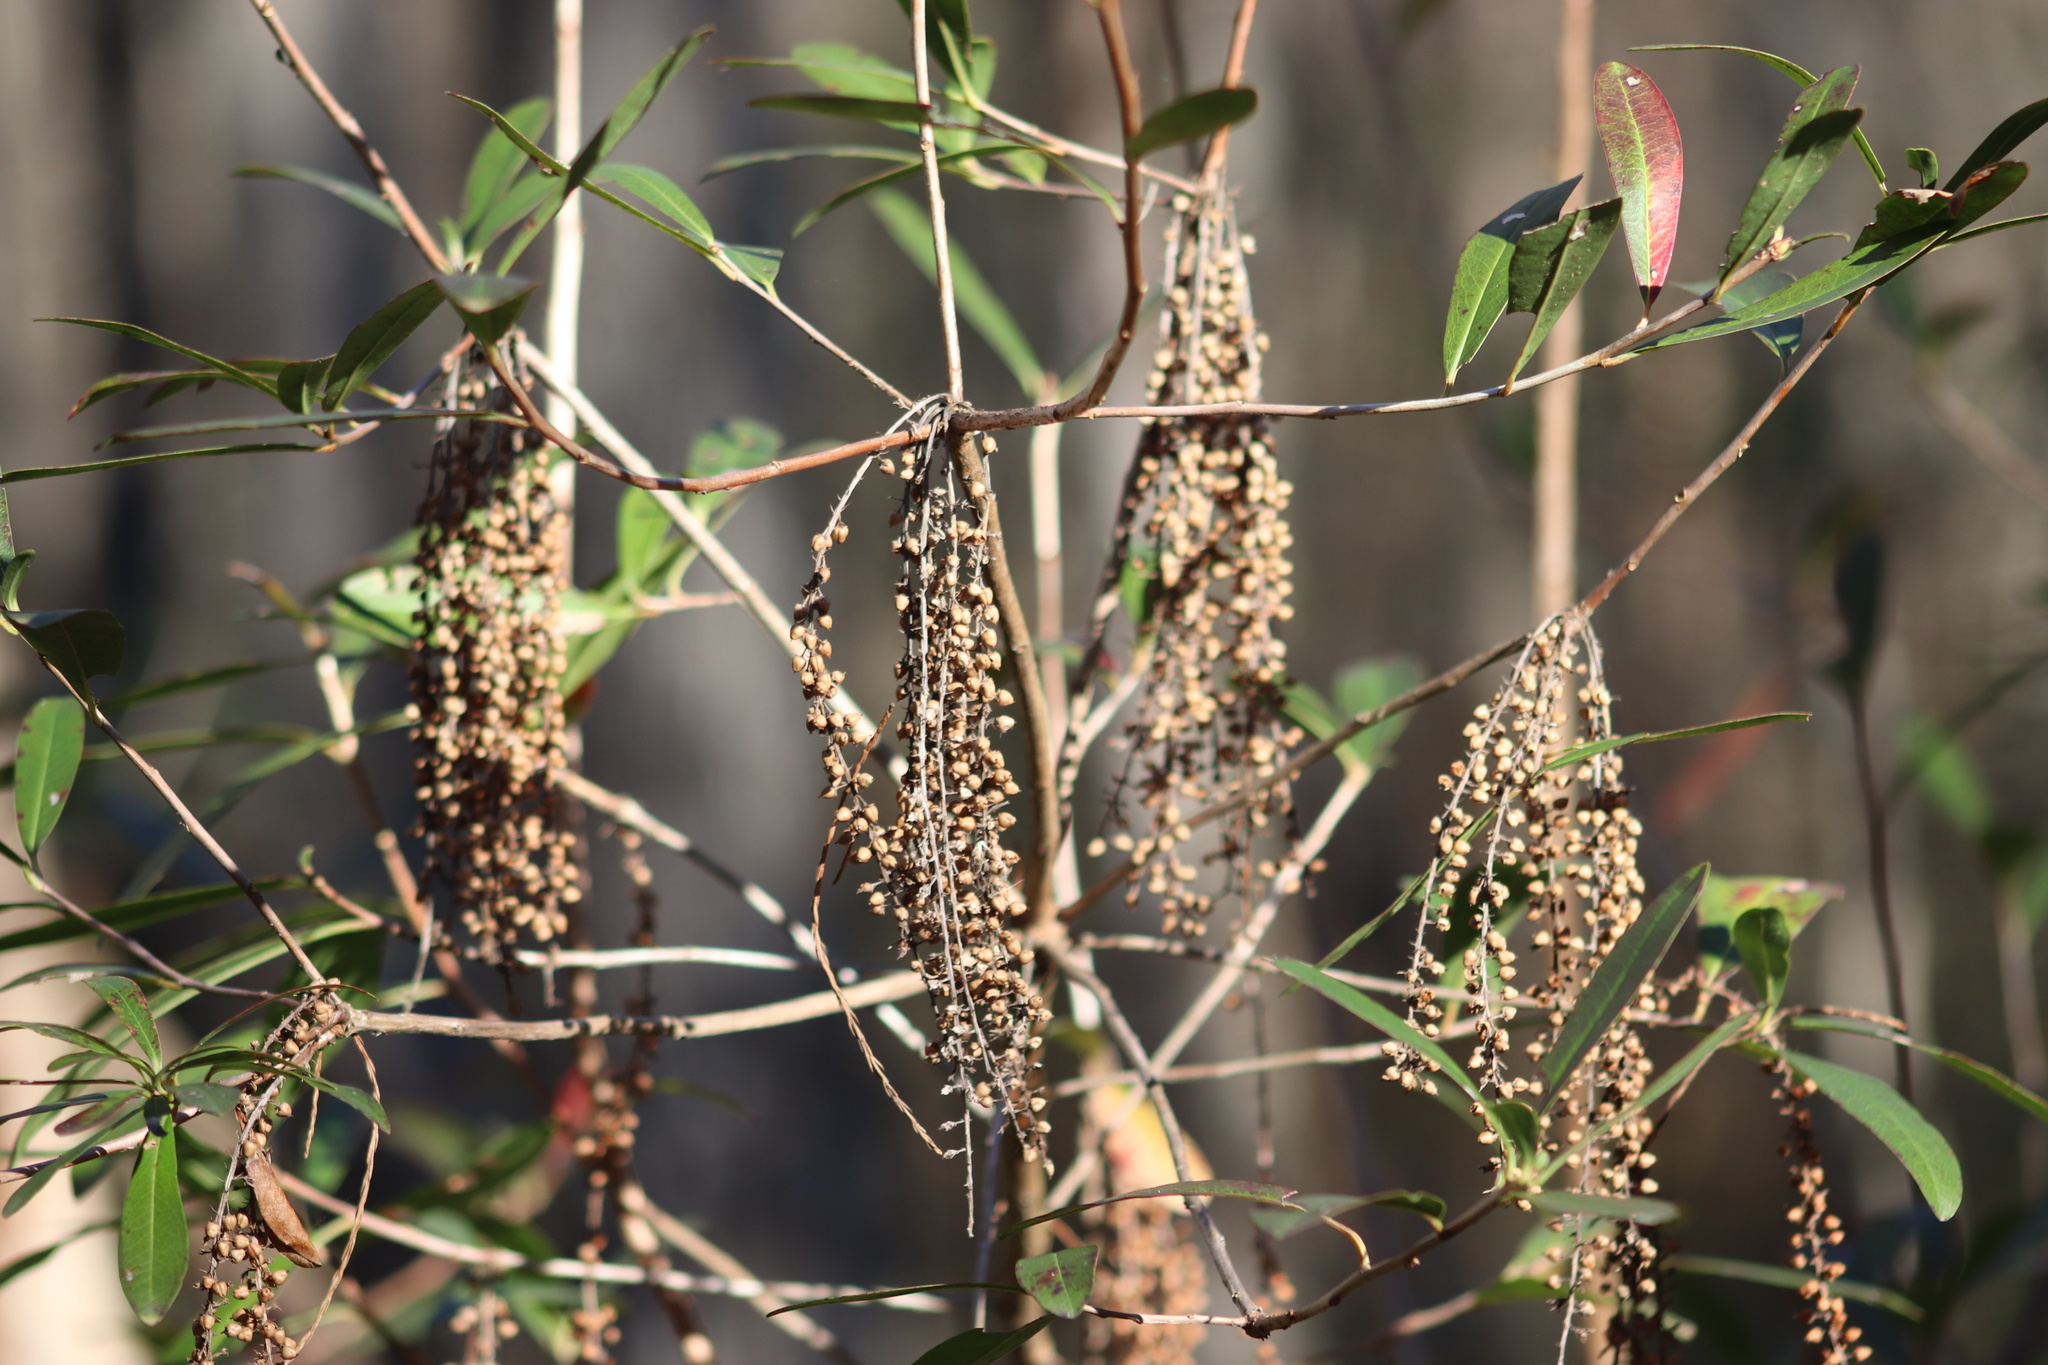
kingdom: Plantae
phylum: Tracheophyta
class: Magnoliopsida
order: Ericales
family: Cyrillaceae
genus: Cyrilla
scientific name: Cyrilla racemiflora
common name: Black titi
